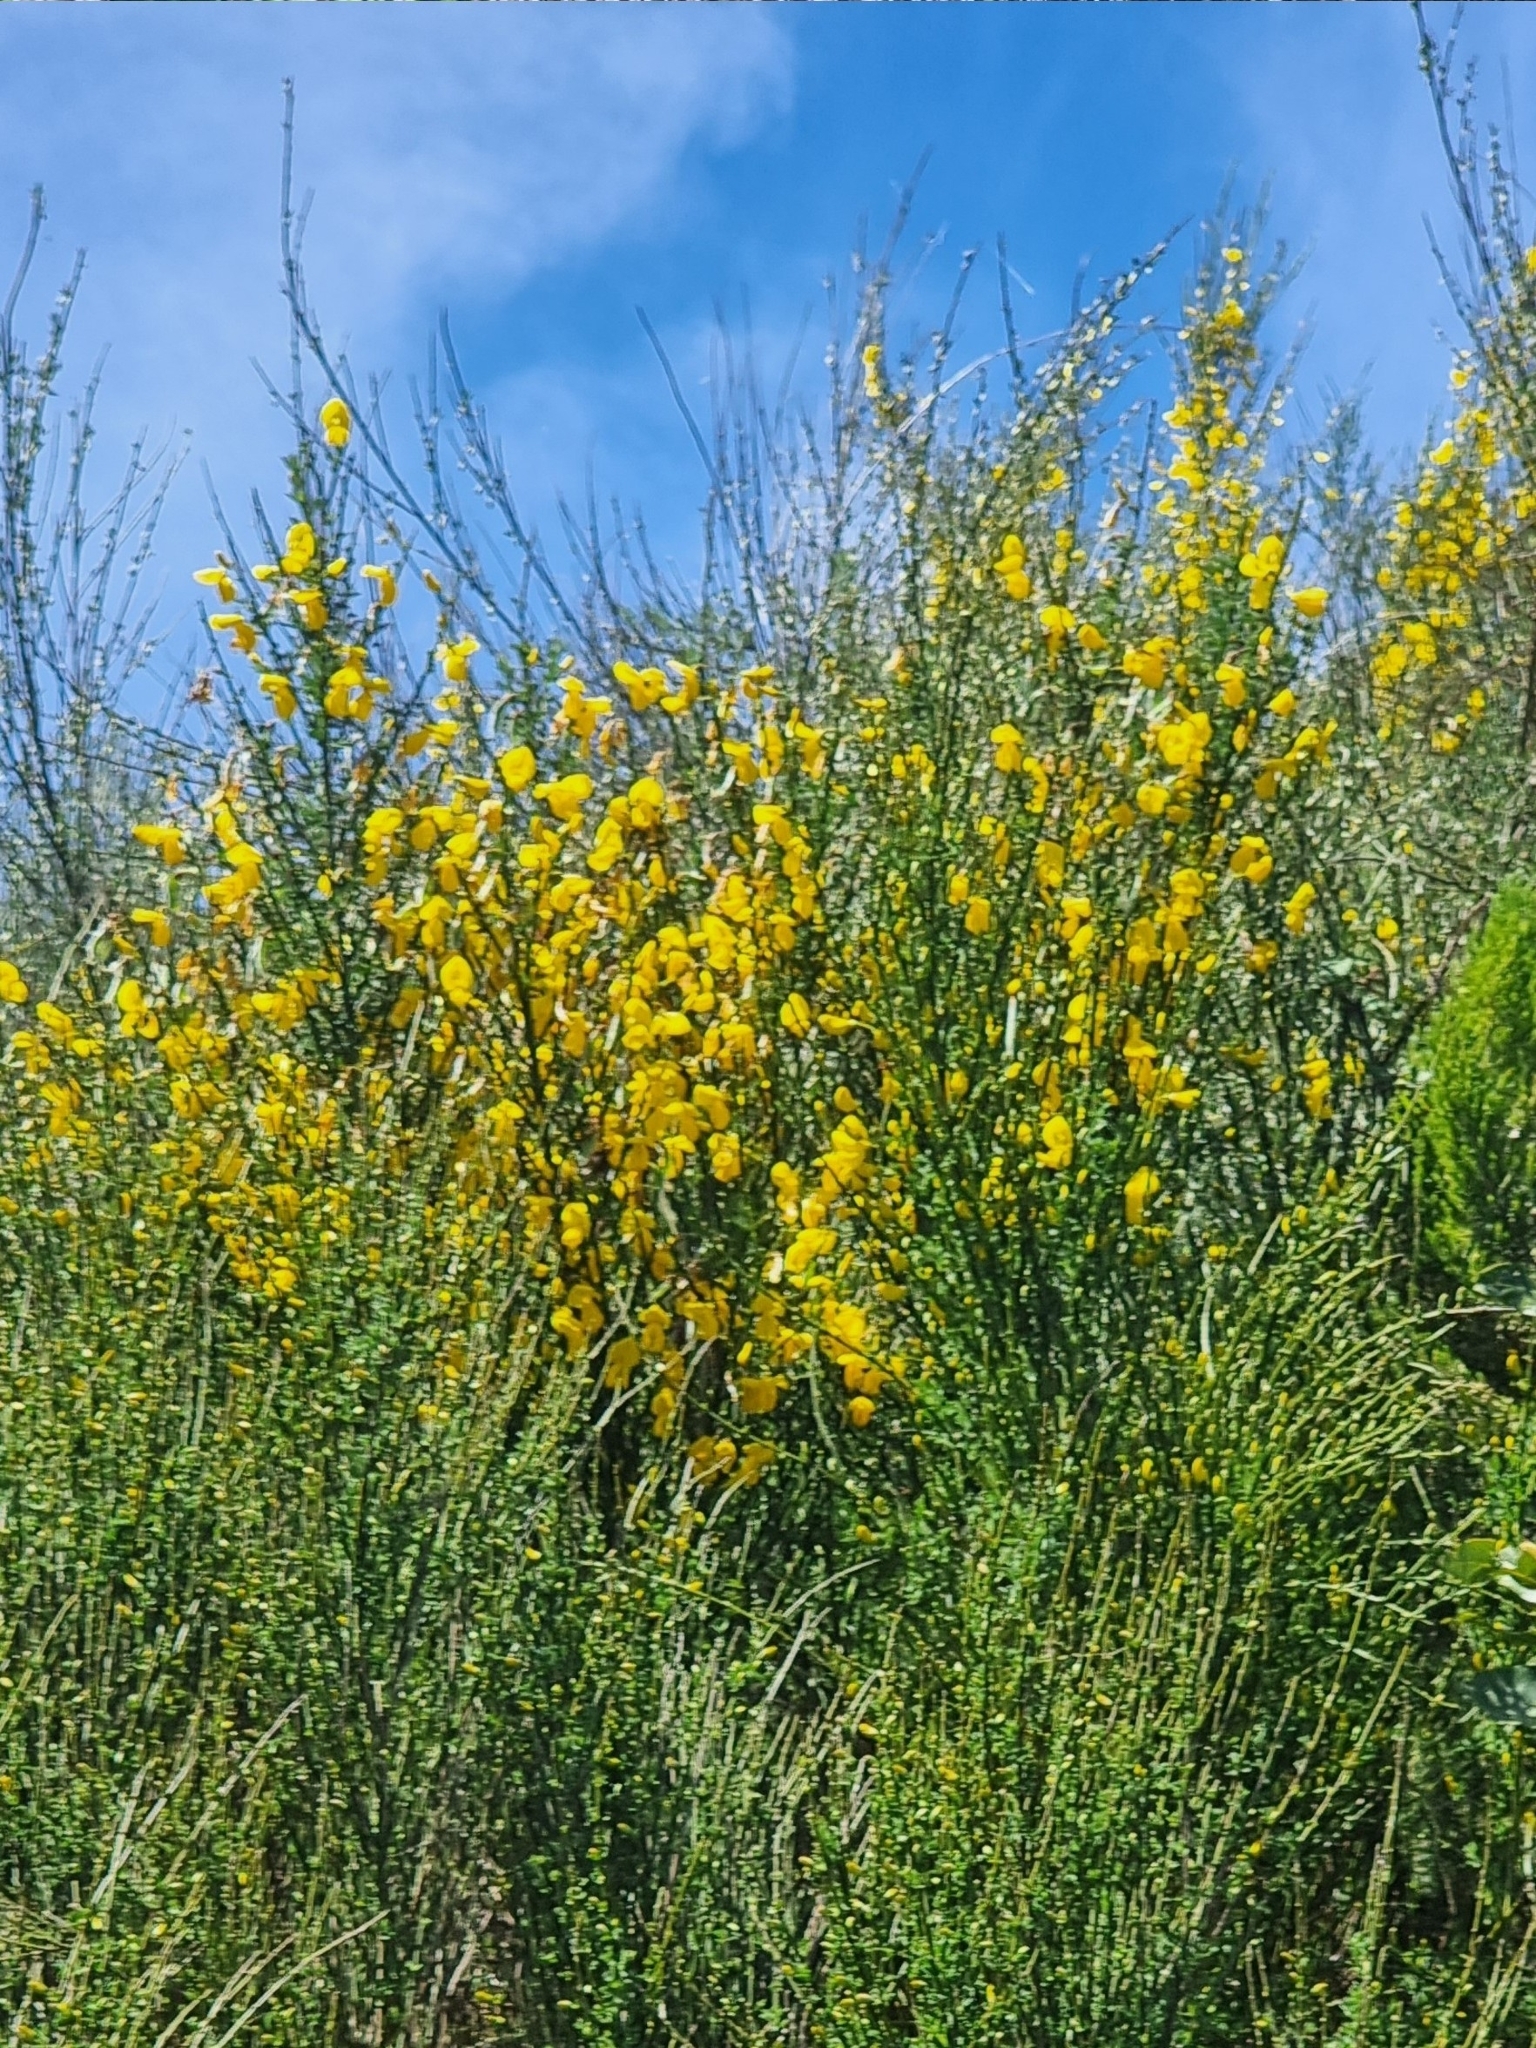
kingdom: Plantae
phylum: Tracheophyta
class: Magnoliopsida
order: Fabales
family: Fabaceae
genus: Cytisus
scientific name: Cytisus scoparius
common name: Scotch broom
